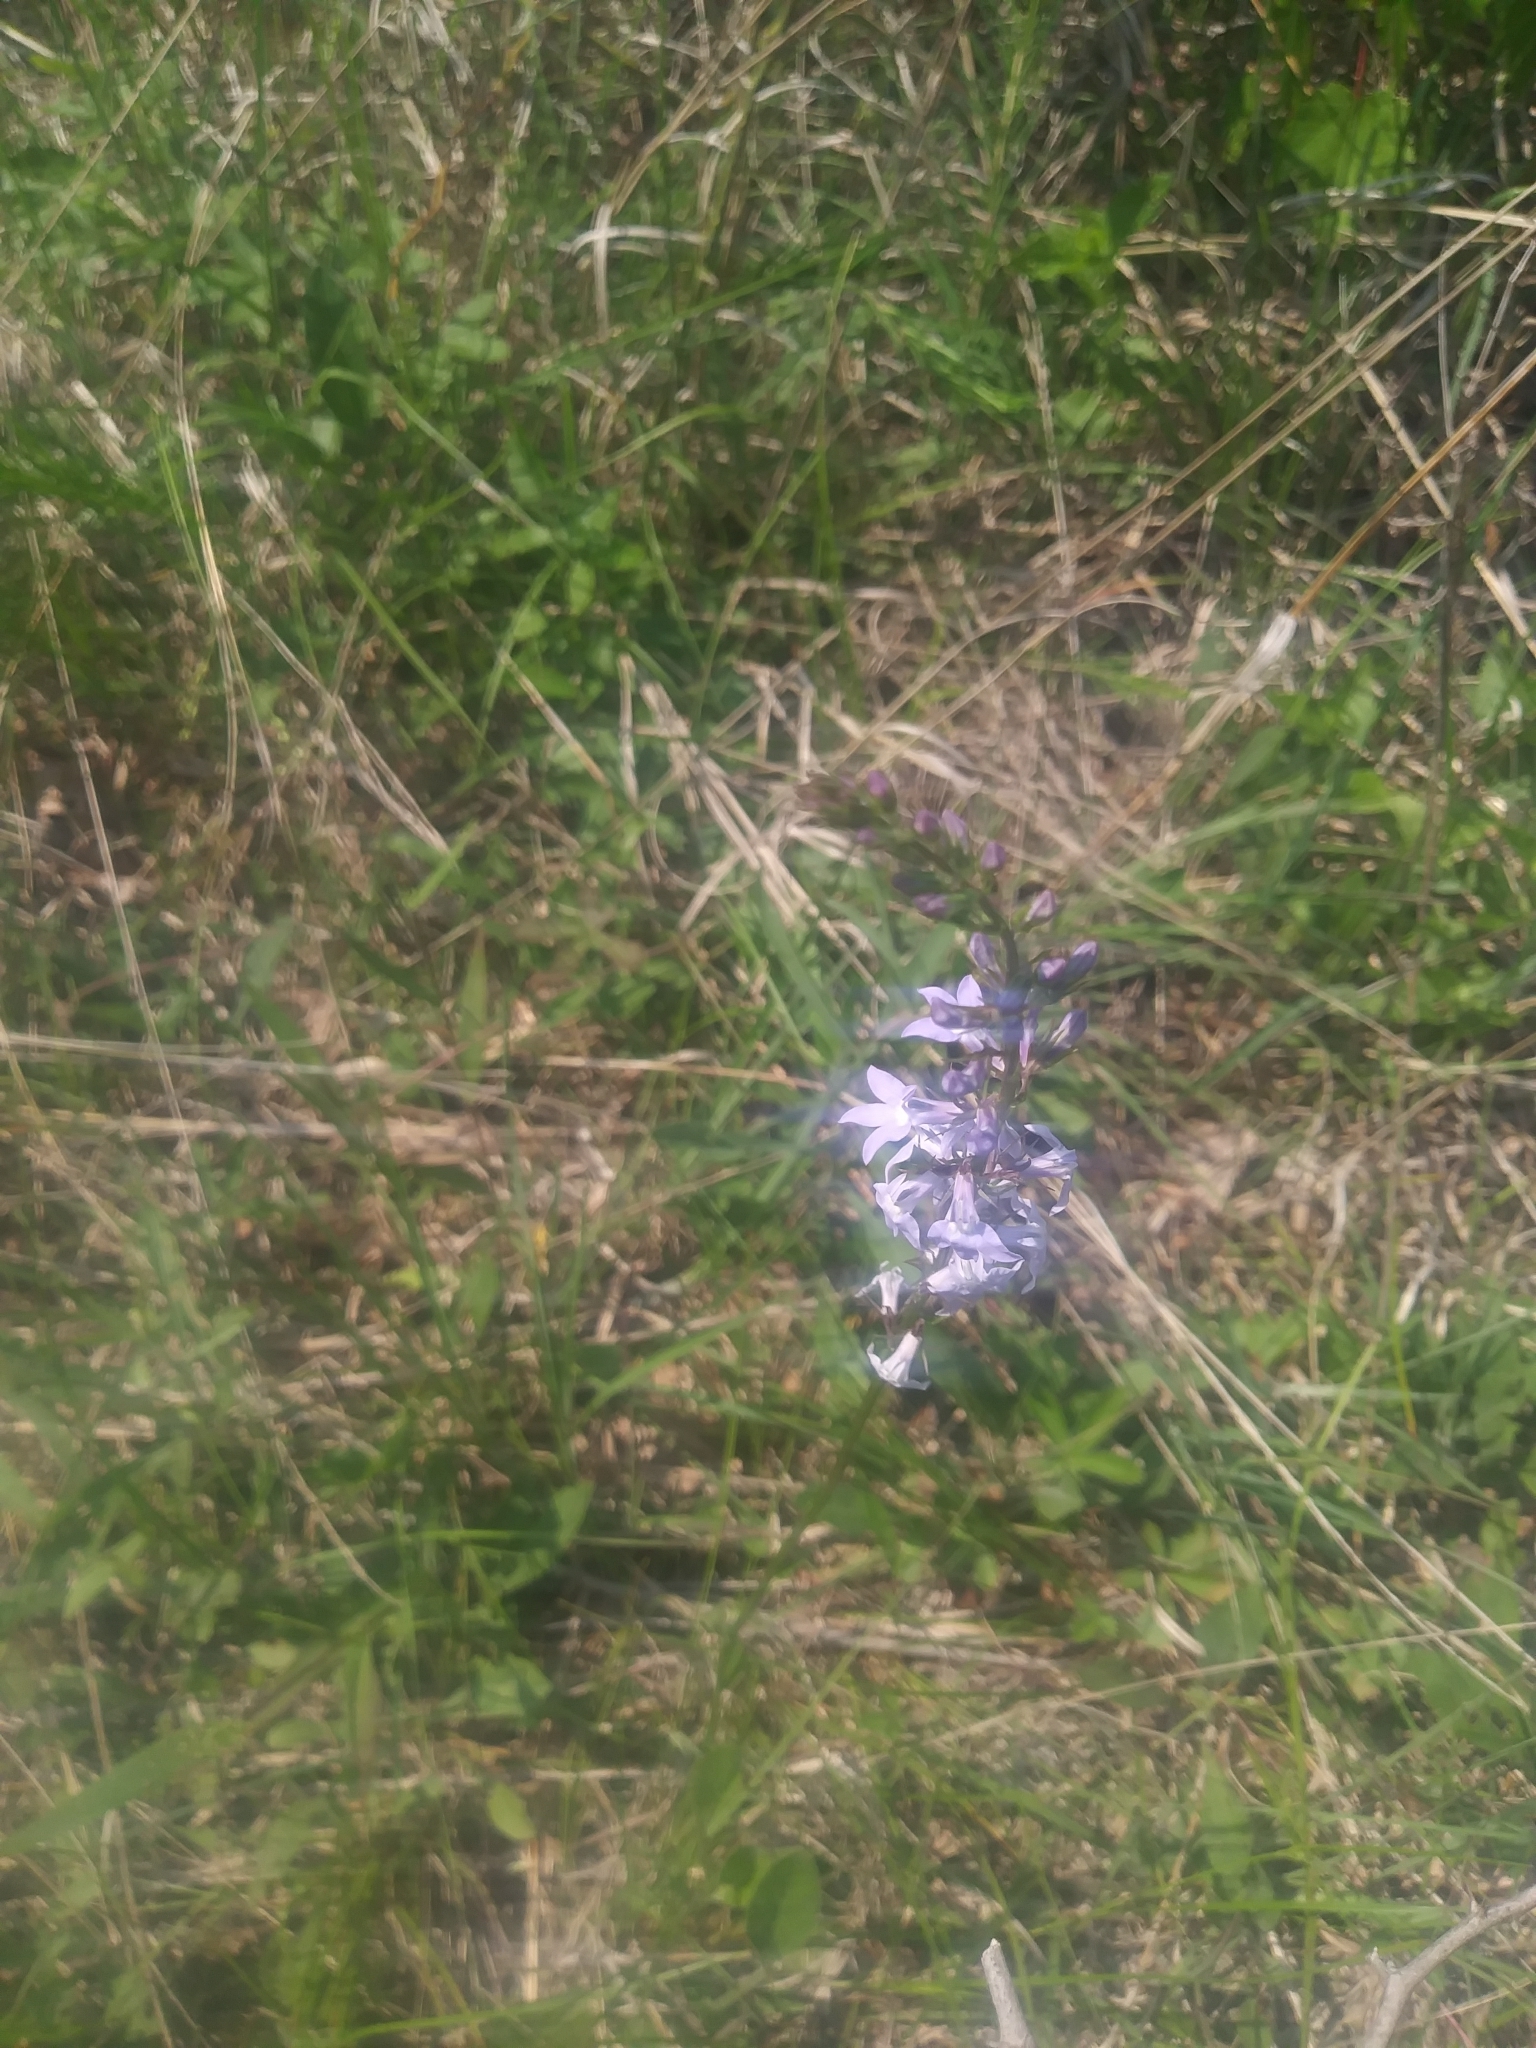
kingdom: Plantae
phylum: Tracheophyta
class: Magnoliopsida
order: Asterales
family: Campanulaceae
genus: Lobelia
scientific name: Lobelia spicata
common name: Pale-spike lobelia
